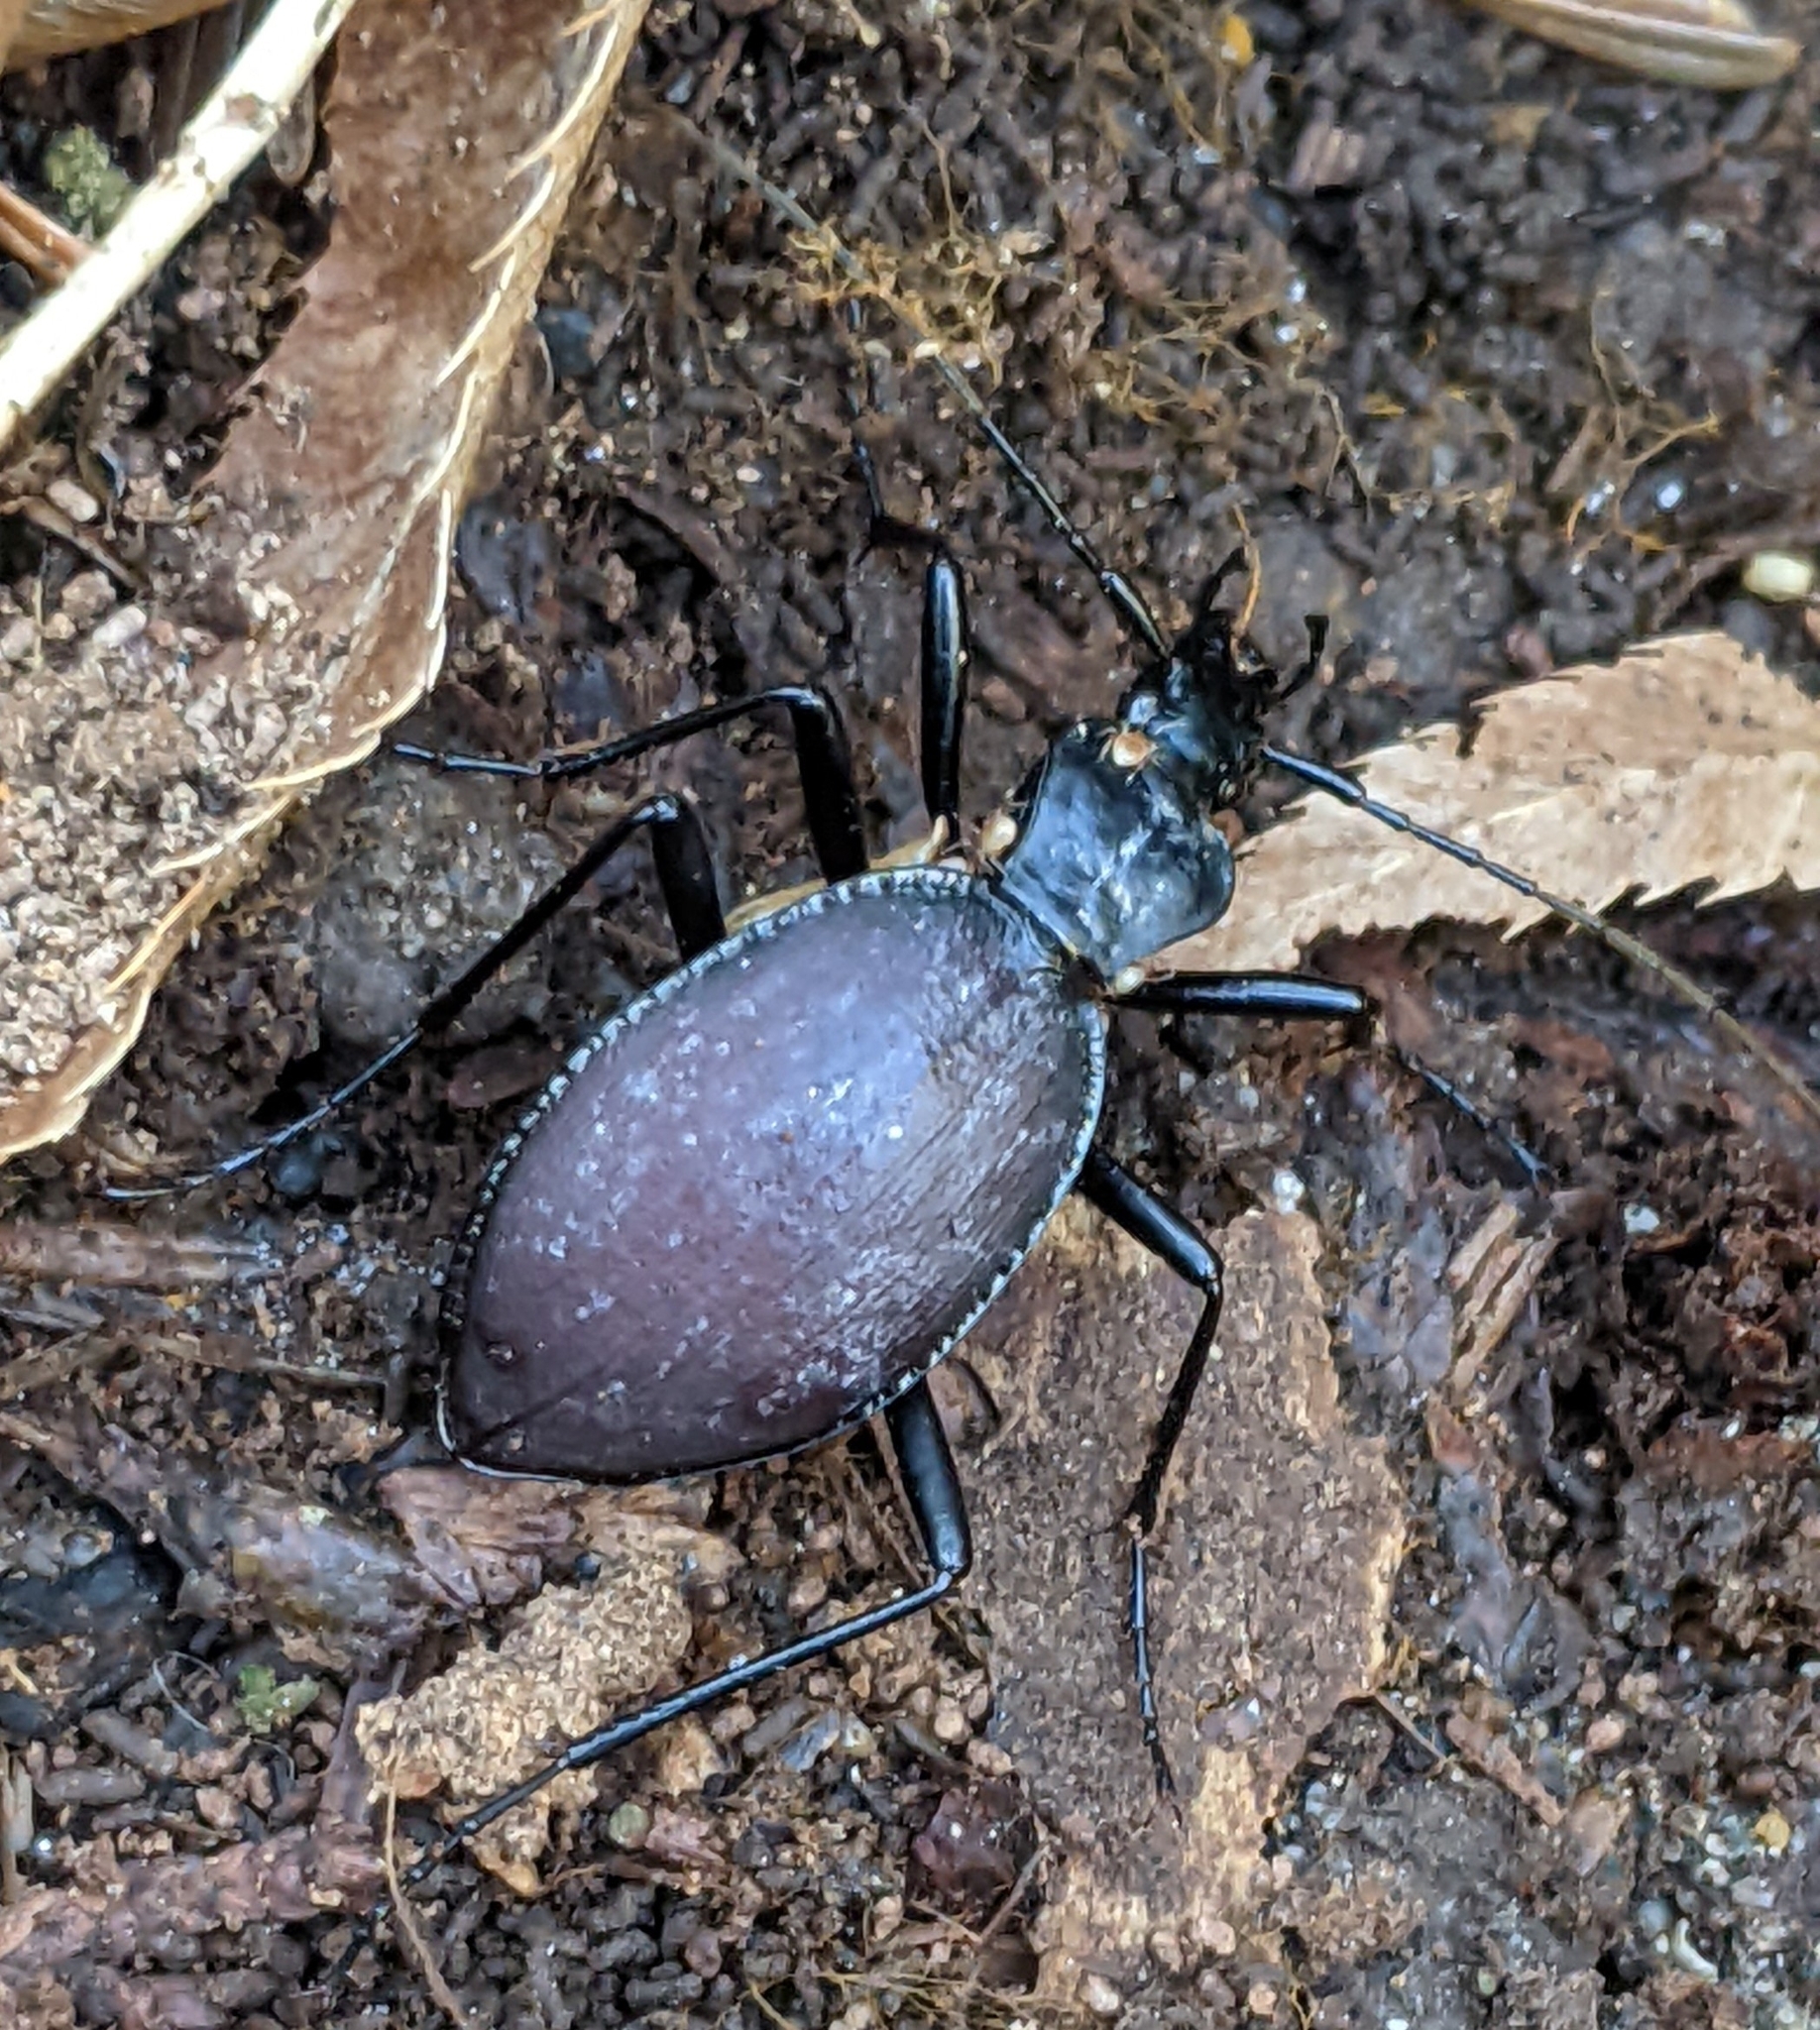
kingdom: Animalia
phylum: Arthropoda
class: Insecta
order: Coleoptera
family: Carabidae
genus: Scaphinotus
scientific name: Scaphinotus angusticollis
